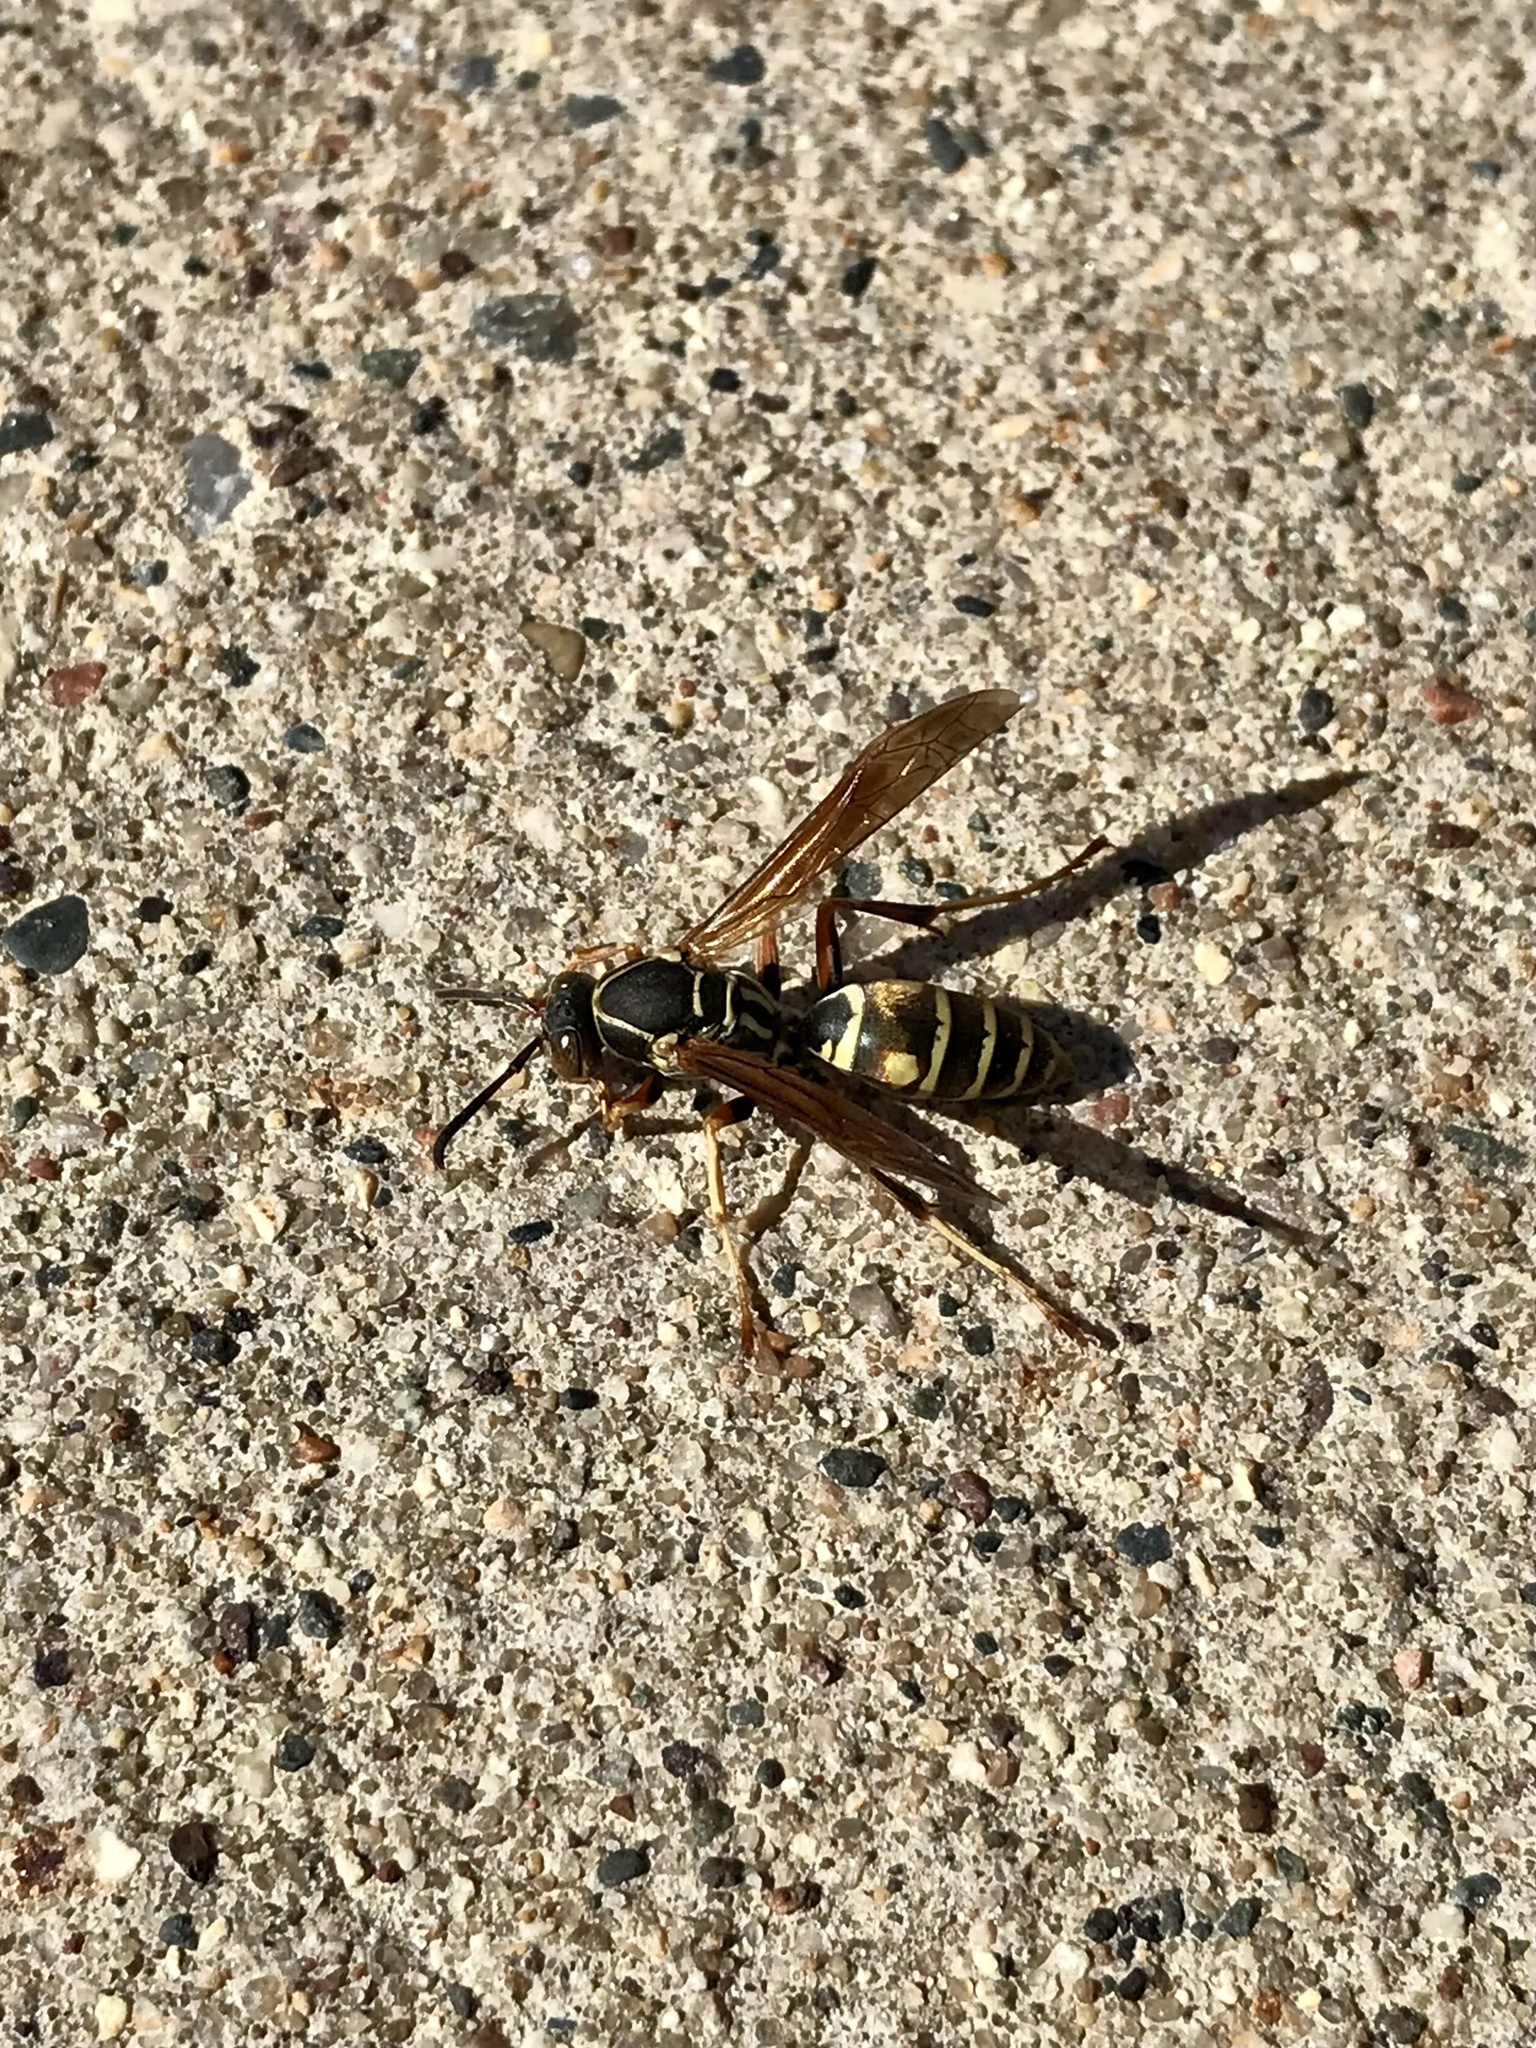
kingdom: Animalia
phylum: Arthropoda
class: Insecta
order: Hymenoptera
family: Eumenidae
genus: Polistes
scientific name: Polistes fuscatus
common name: Dark paper wasp
